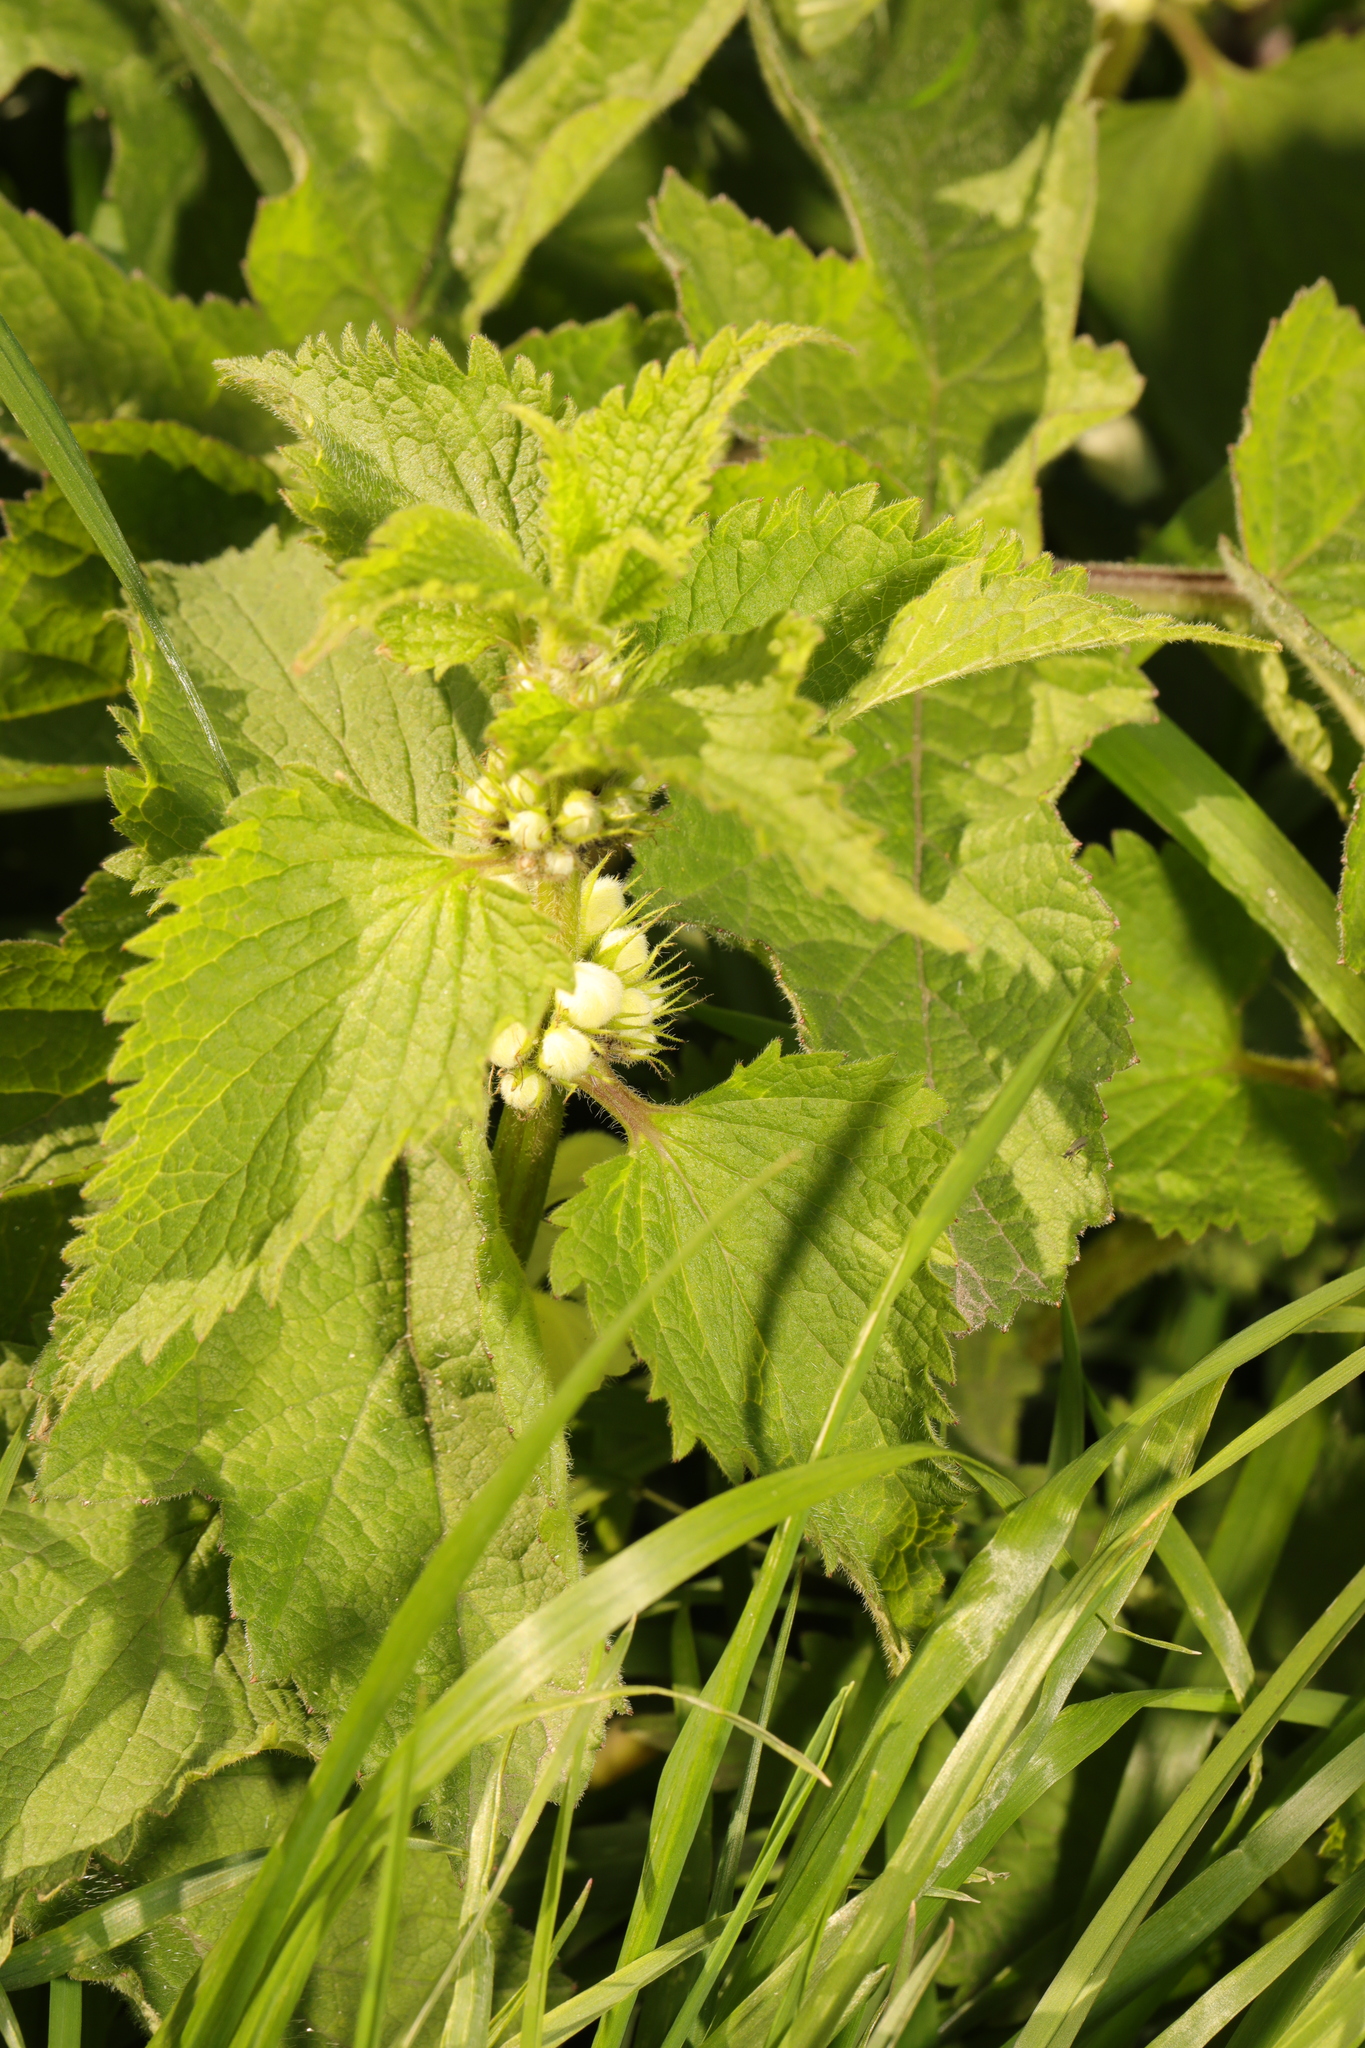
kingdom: Plantae
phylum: Tracheophyta
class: Magnoliopsida
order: Lamiales
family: Lamiaceae
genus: Lamium
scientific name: Lamium album
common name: White dead-nettle
